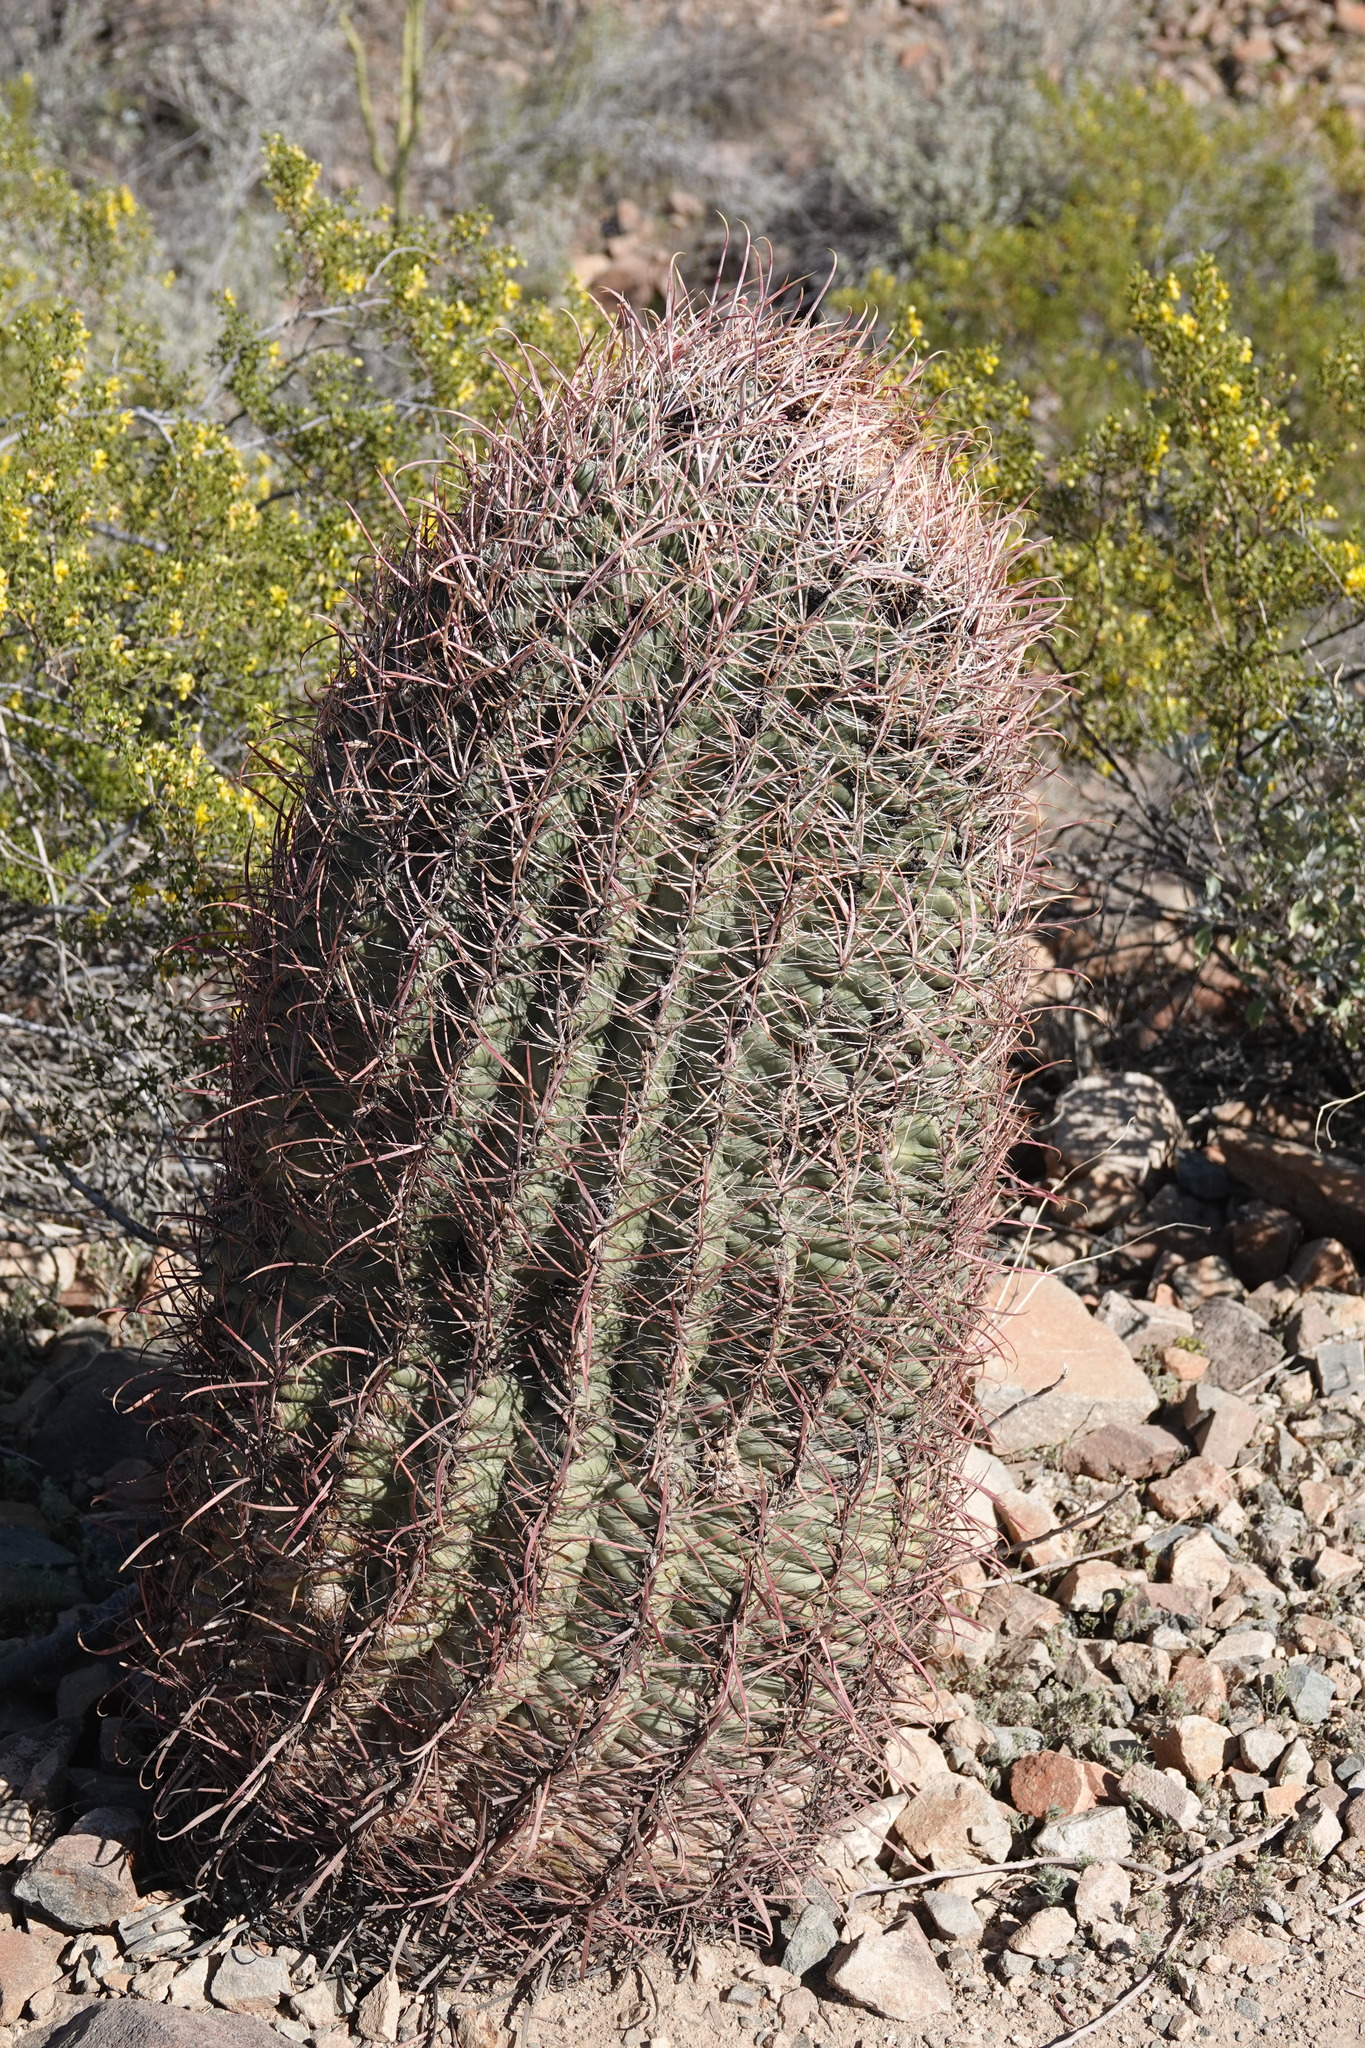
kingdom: Plantae
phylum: Tracheophyta
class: Magnoliopsida
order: Caryophyllales
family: Cactaceae
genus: Ferocactus
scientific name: Ferocactus cylindraceus
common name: California barrel cactus
